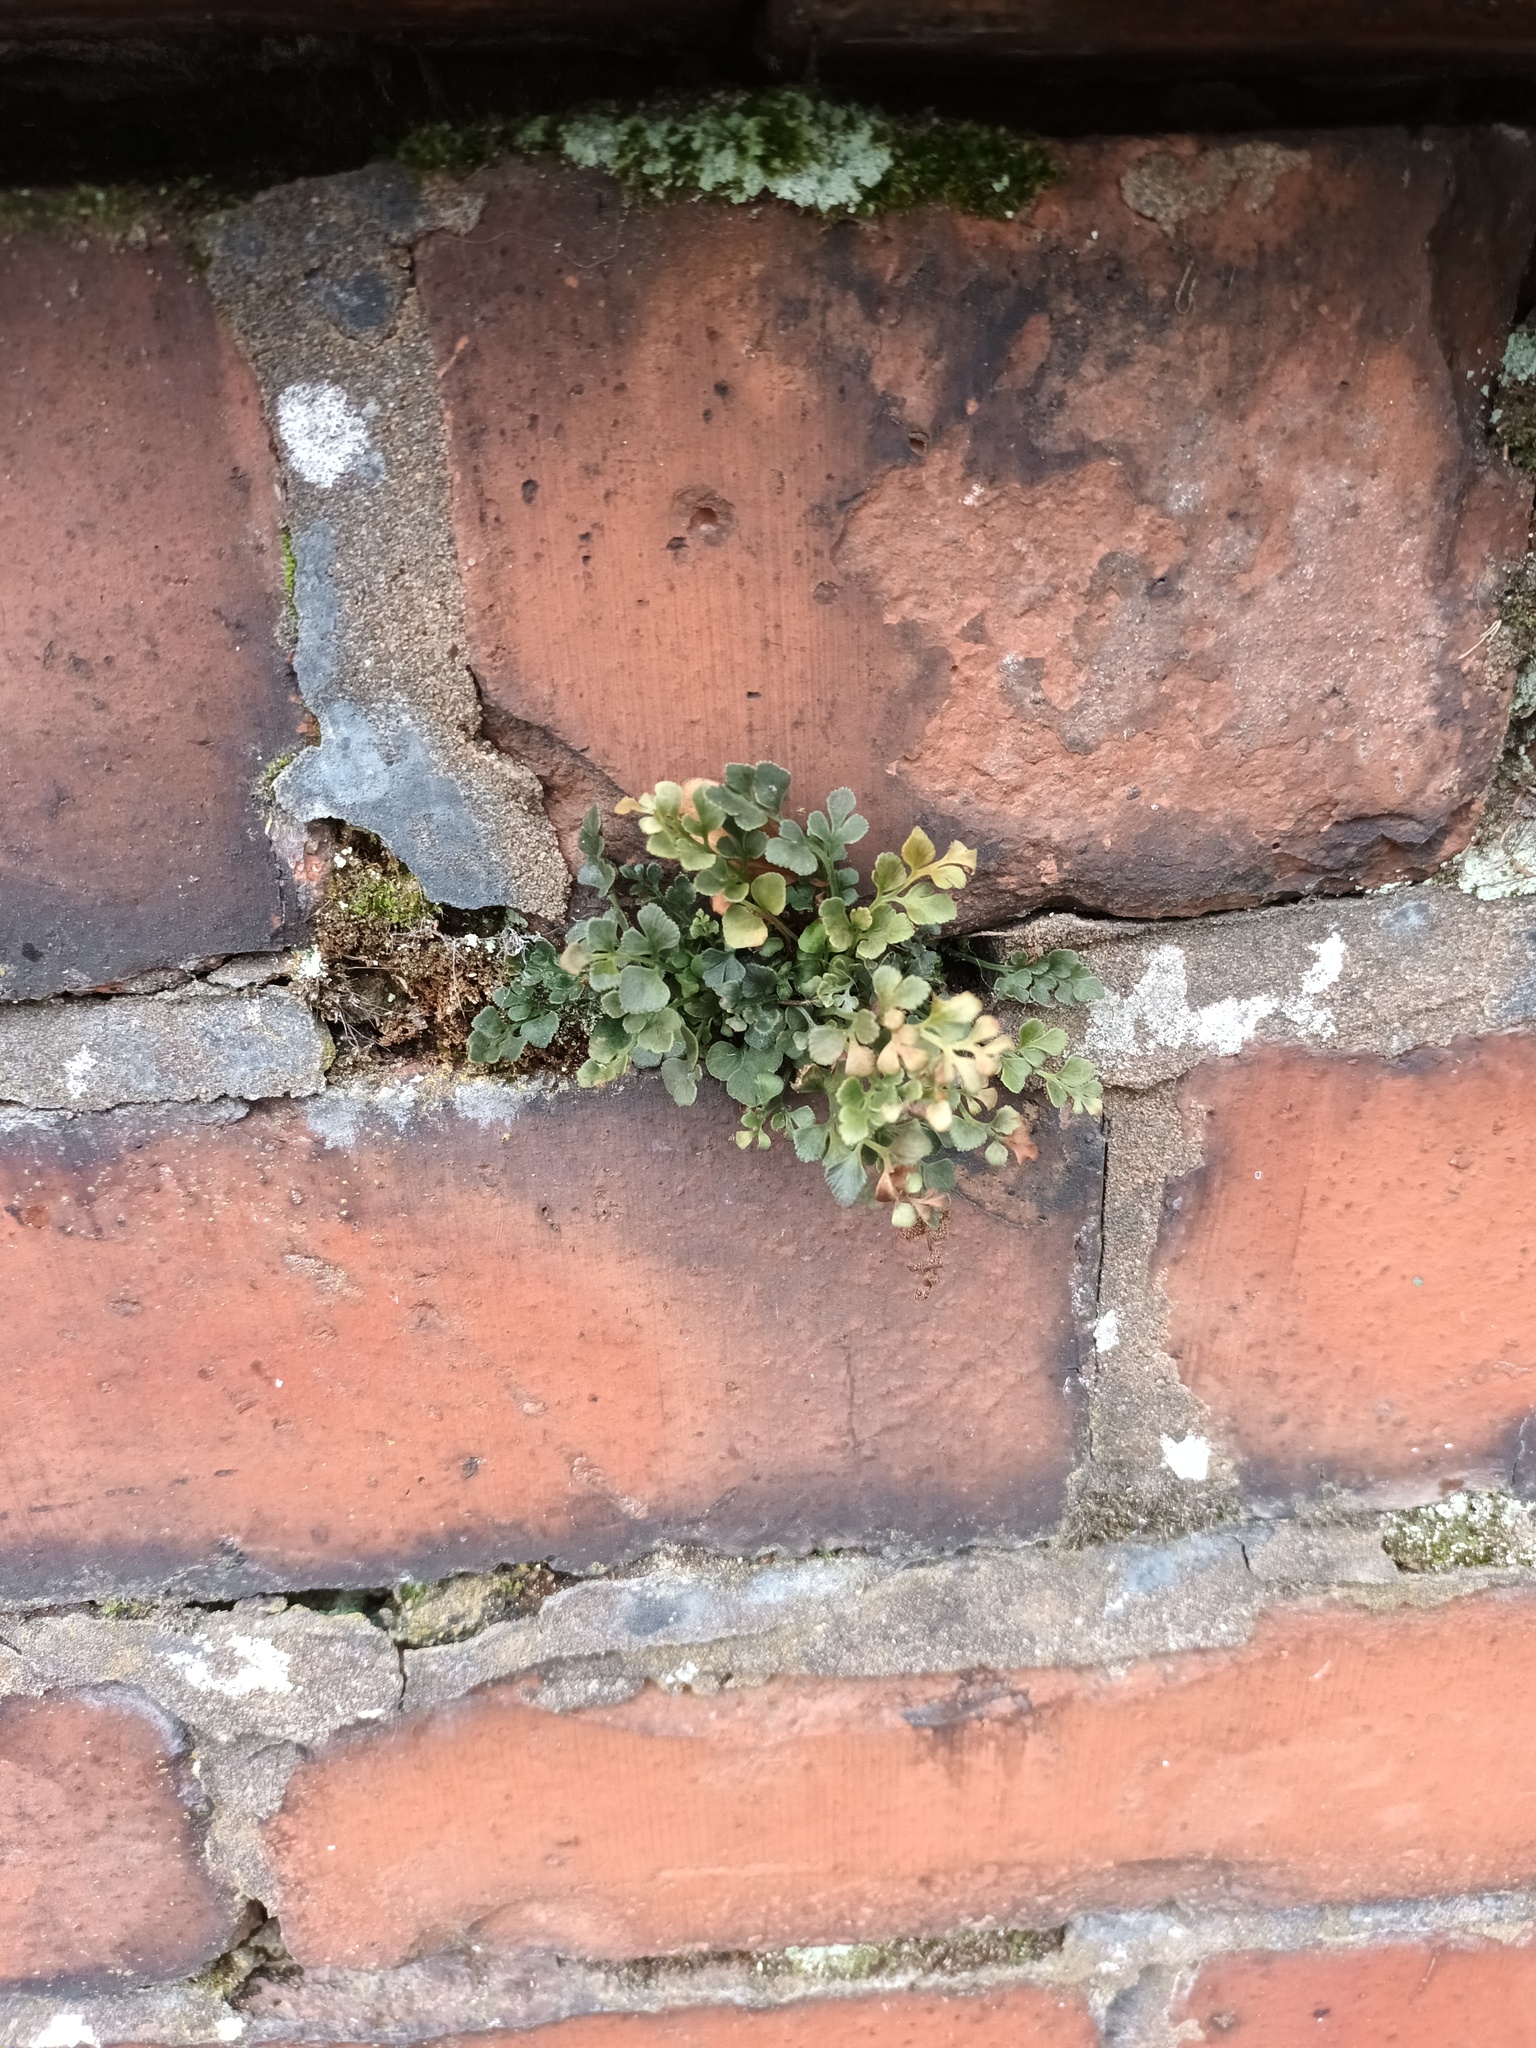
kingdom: Plantae
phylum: Tracheophyta
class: Polypodiopsida
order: Polypodiales
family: Aspleniaceae
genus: Asplenium
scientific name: Asplenium ruta-muraria
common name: Wall-rue
